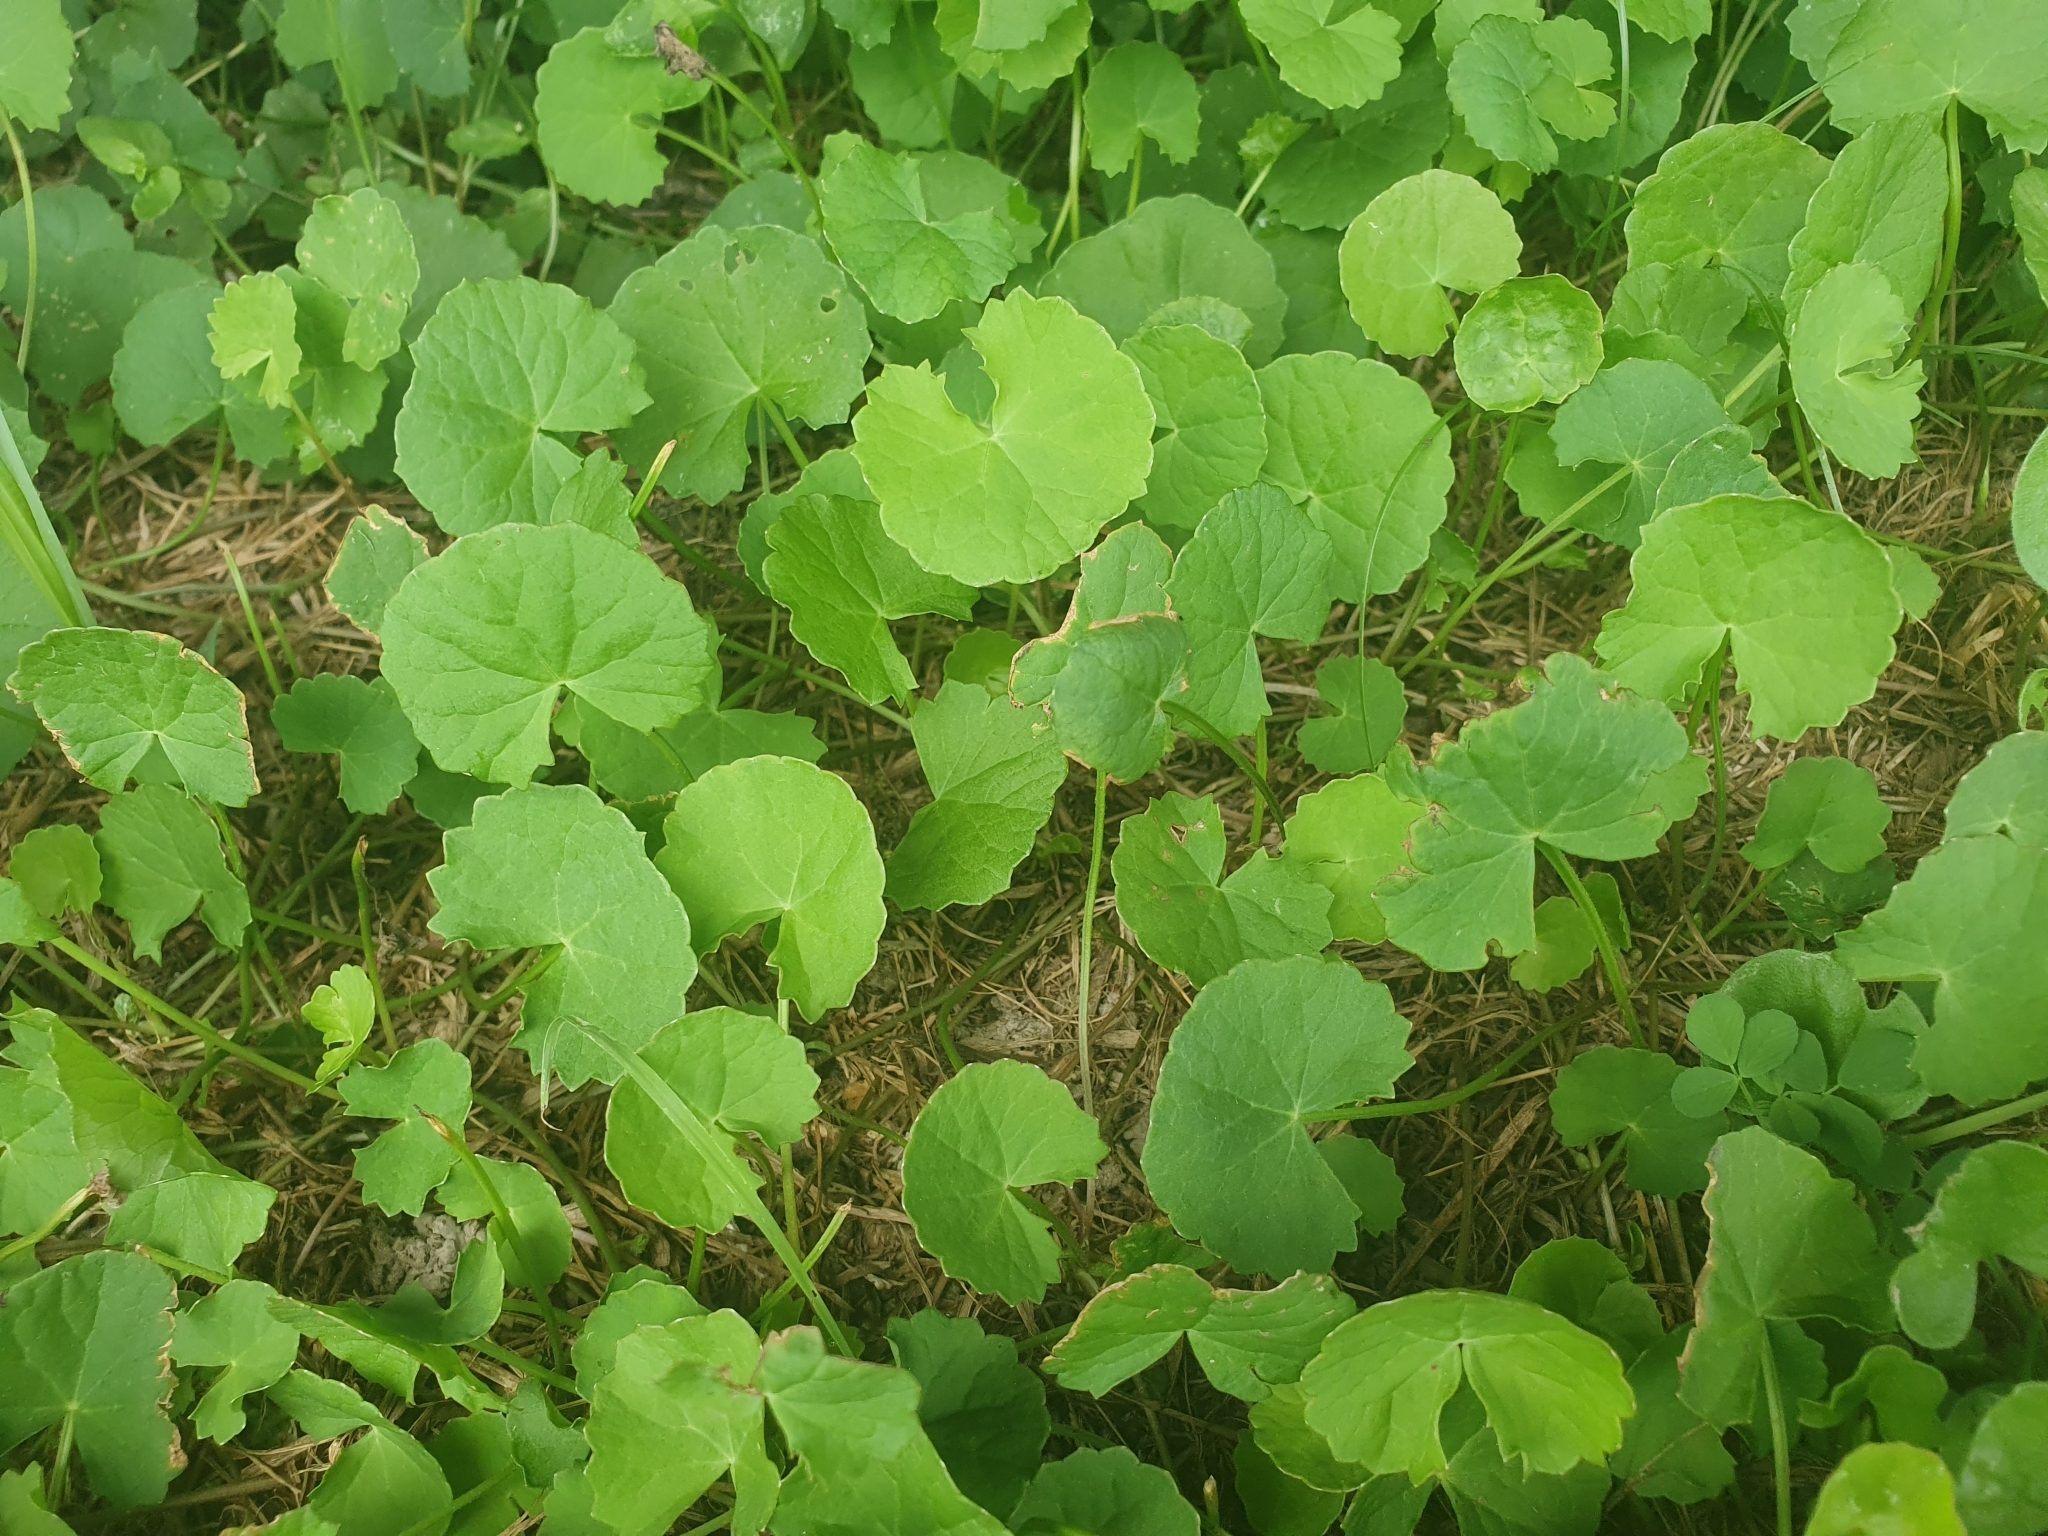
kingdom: Plantae
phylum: Tracheophyta
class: Magnoliopsida
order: Apiales
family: Apiaceae
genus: Centella
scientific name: Centella asiatica
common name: Spadeleaf
